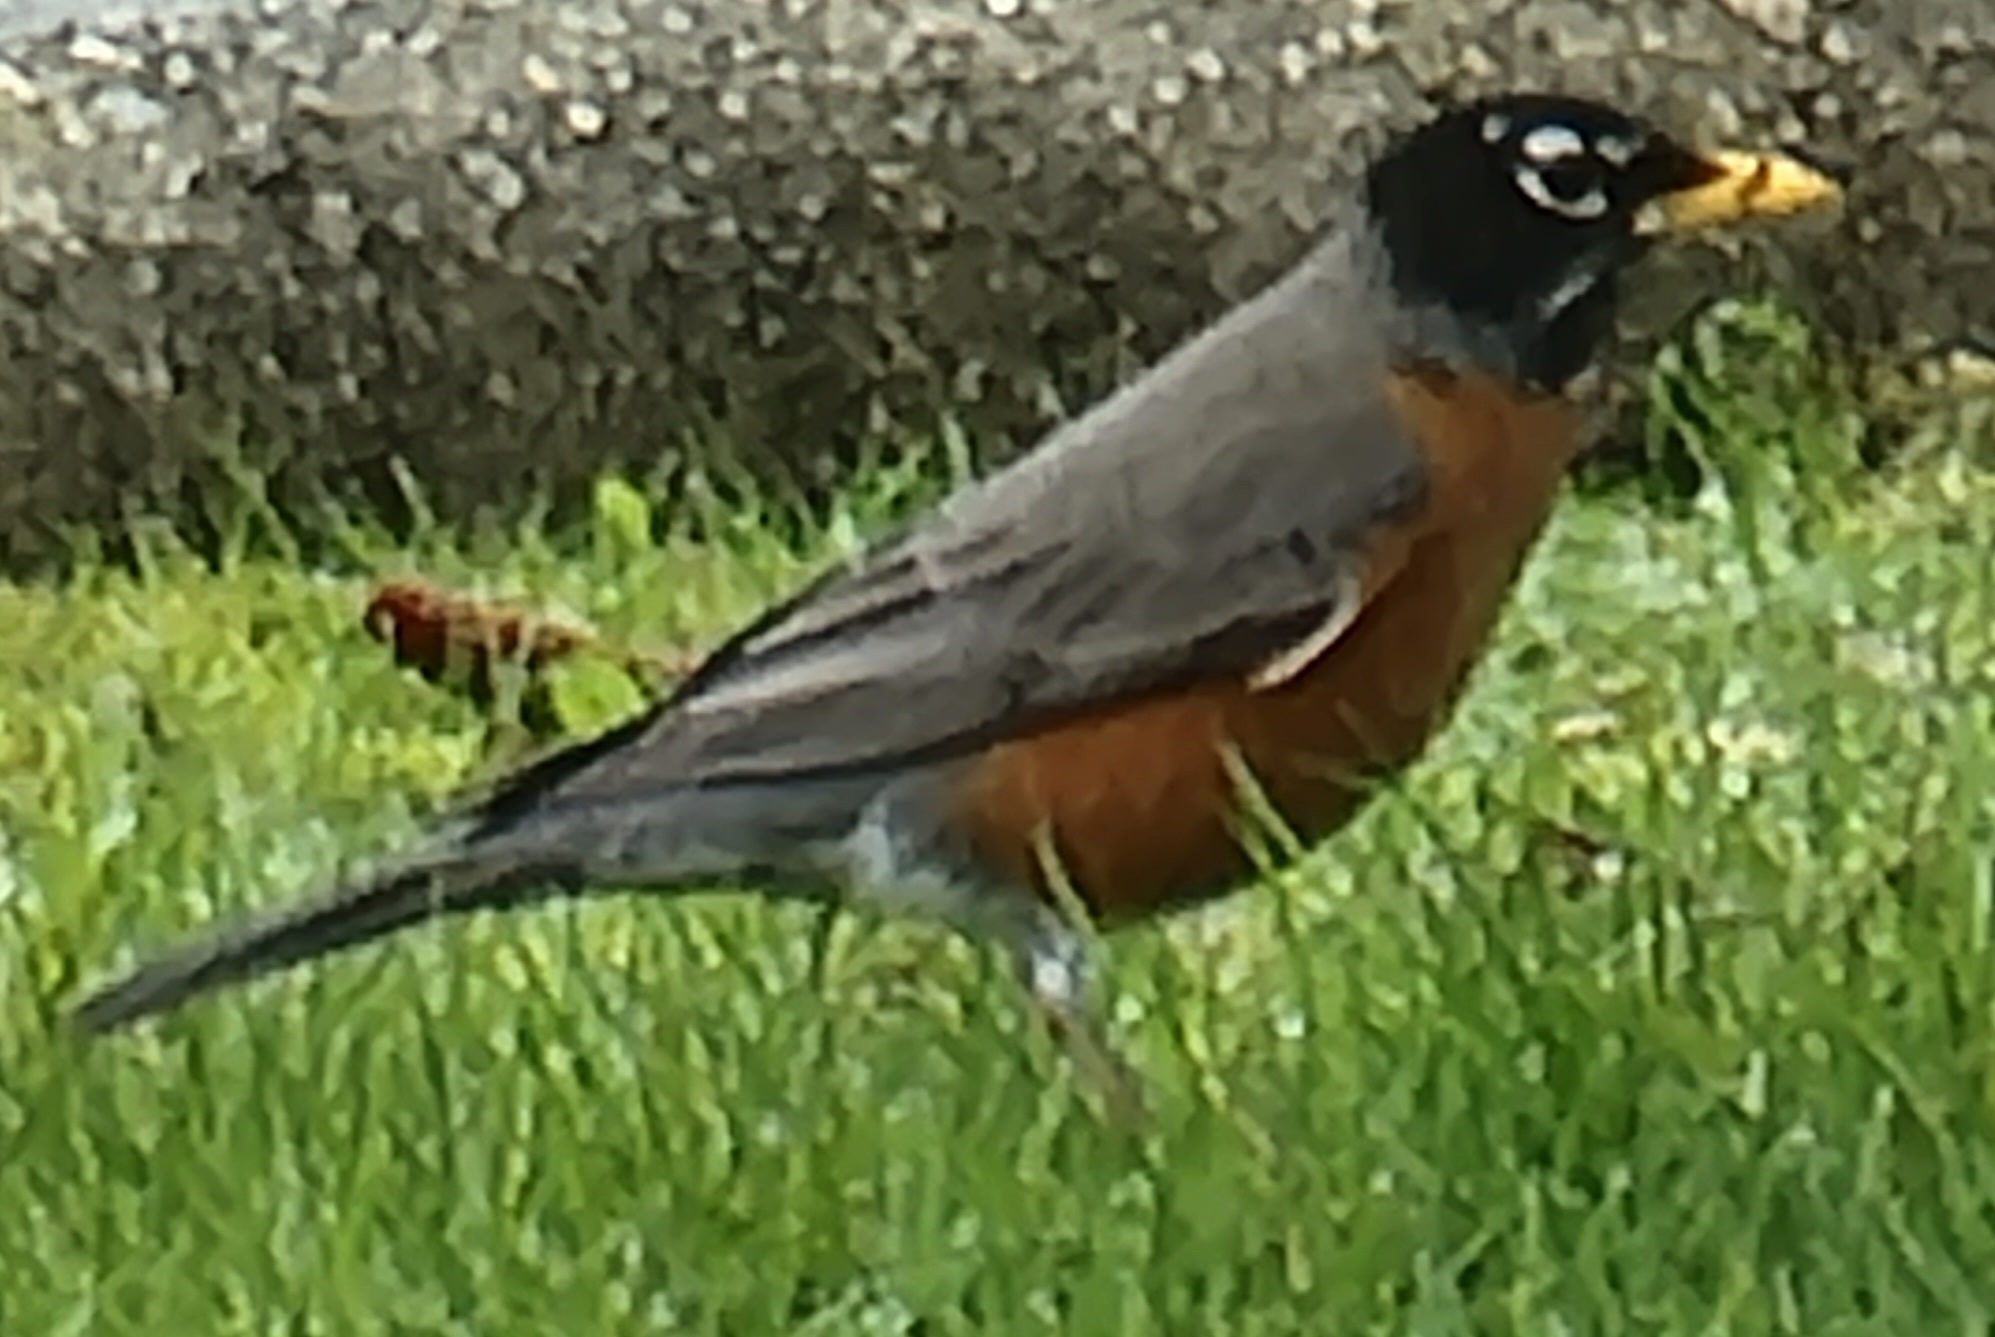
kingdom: Animalia
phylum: Chordata
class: Aves
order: Passeriformes
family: Turdidae
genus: Turdus
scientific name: Turdus migratorius
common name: American robin
